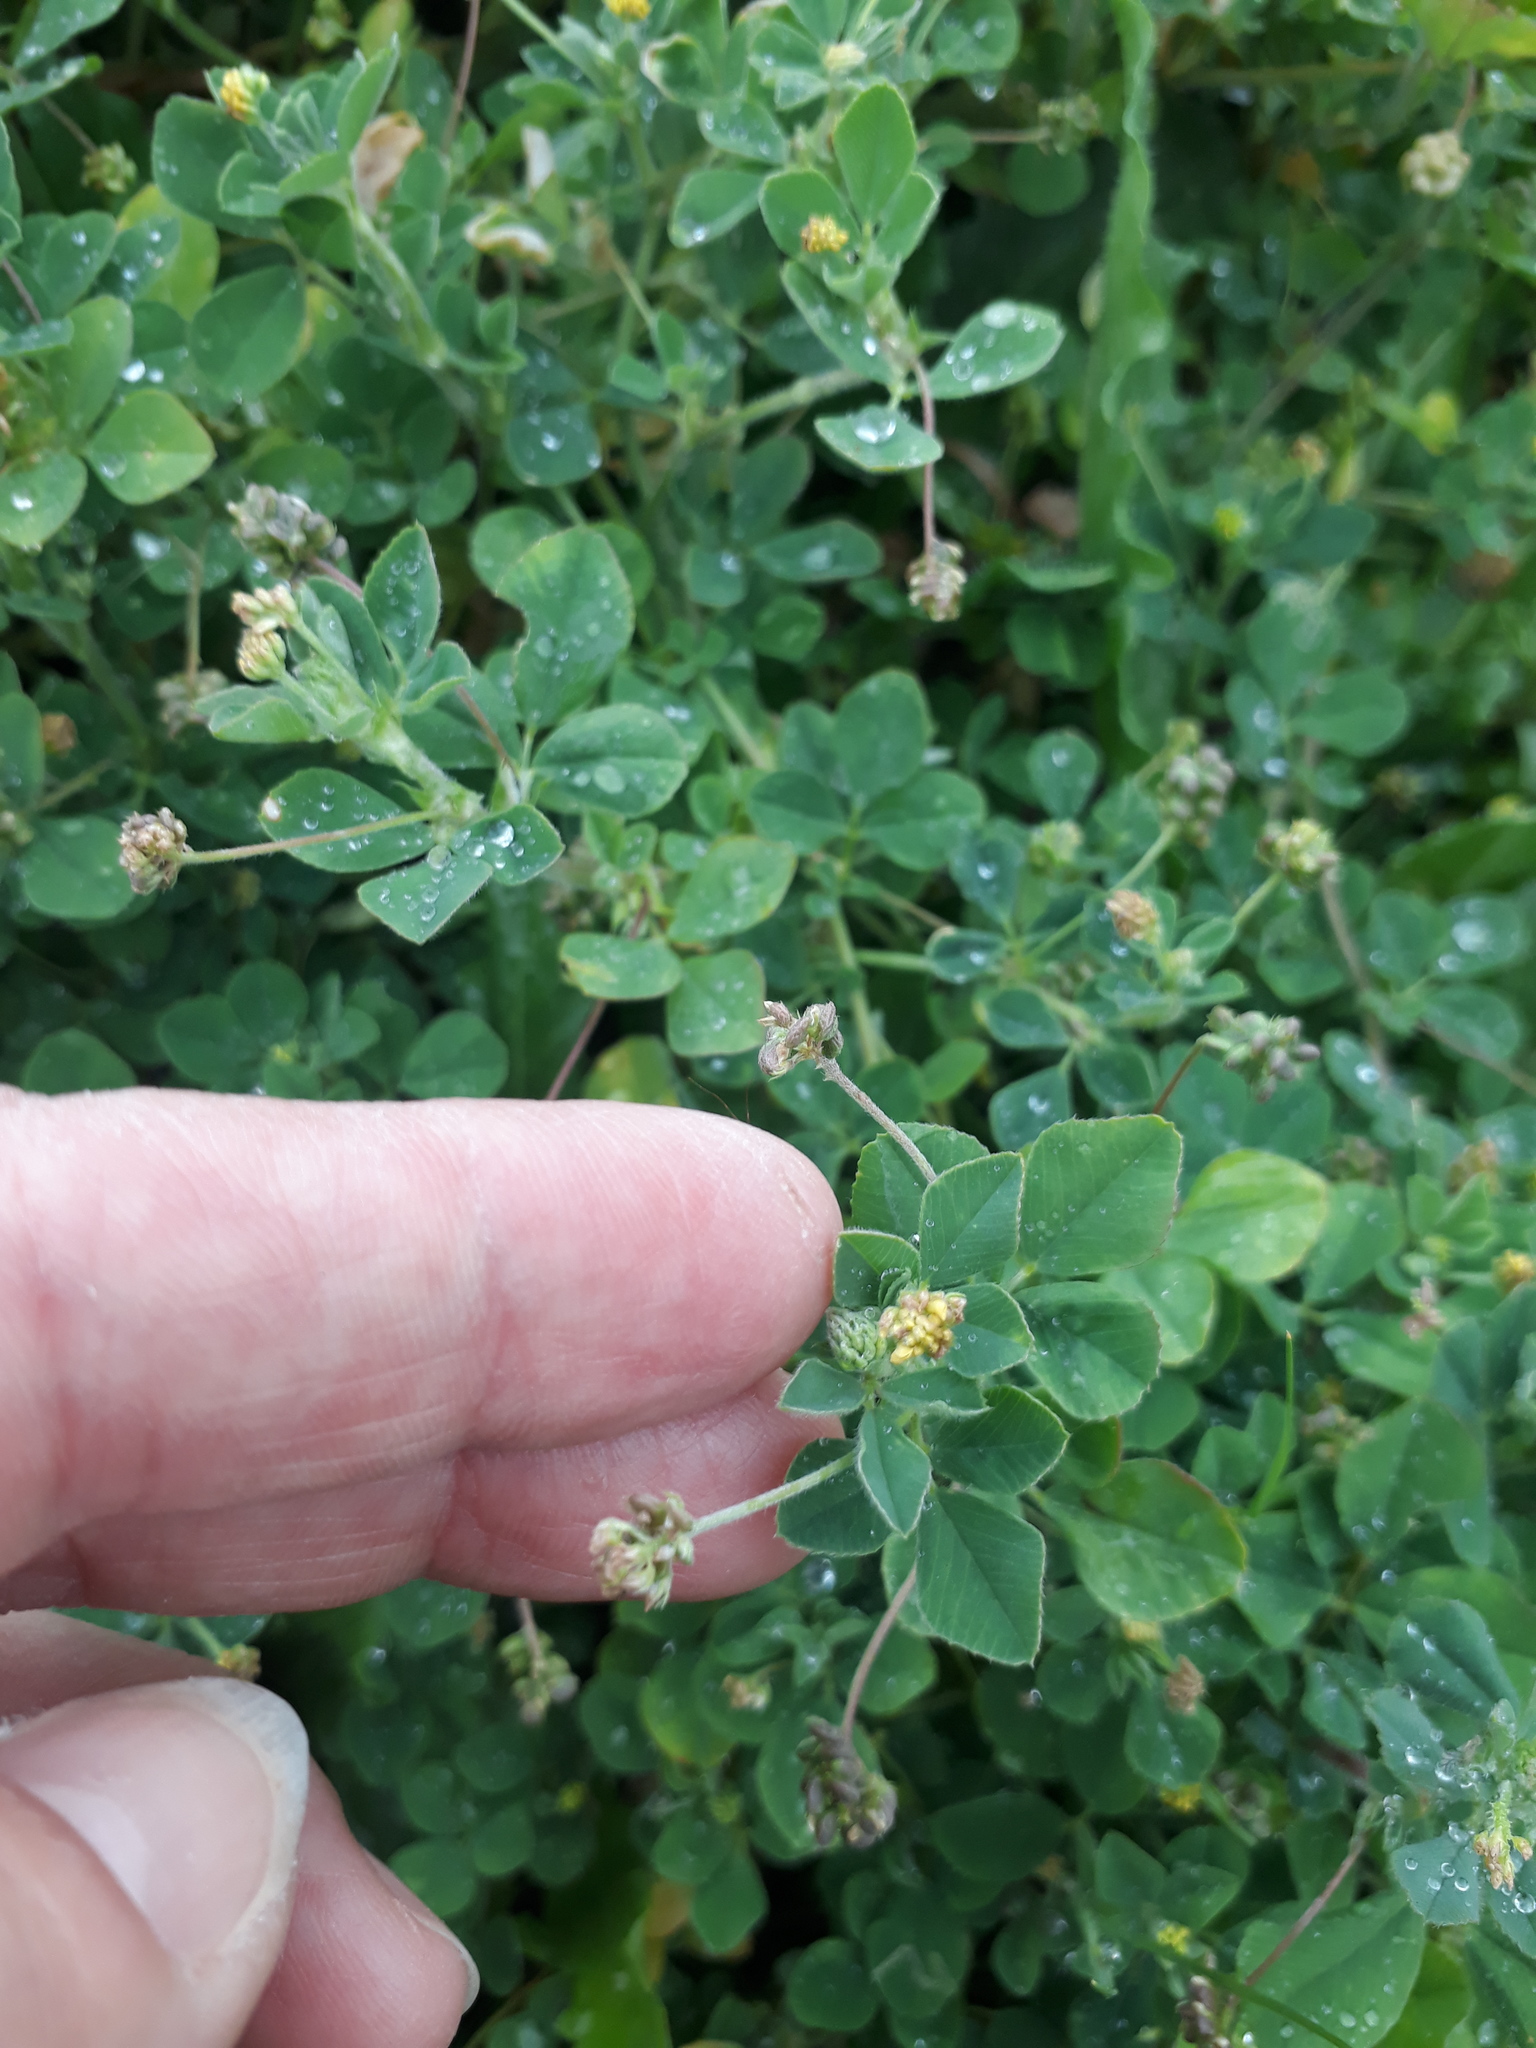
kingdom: Plantae
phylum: Tracheophyta
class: Magnoliopsida
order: Fabales
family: Fabaceae
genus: Medicago
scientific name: Medicago lupulina
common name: Black medick
